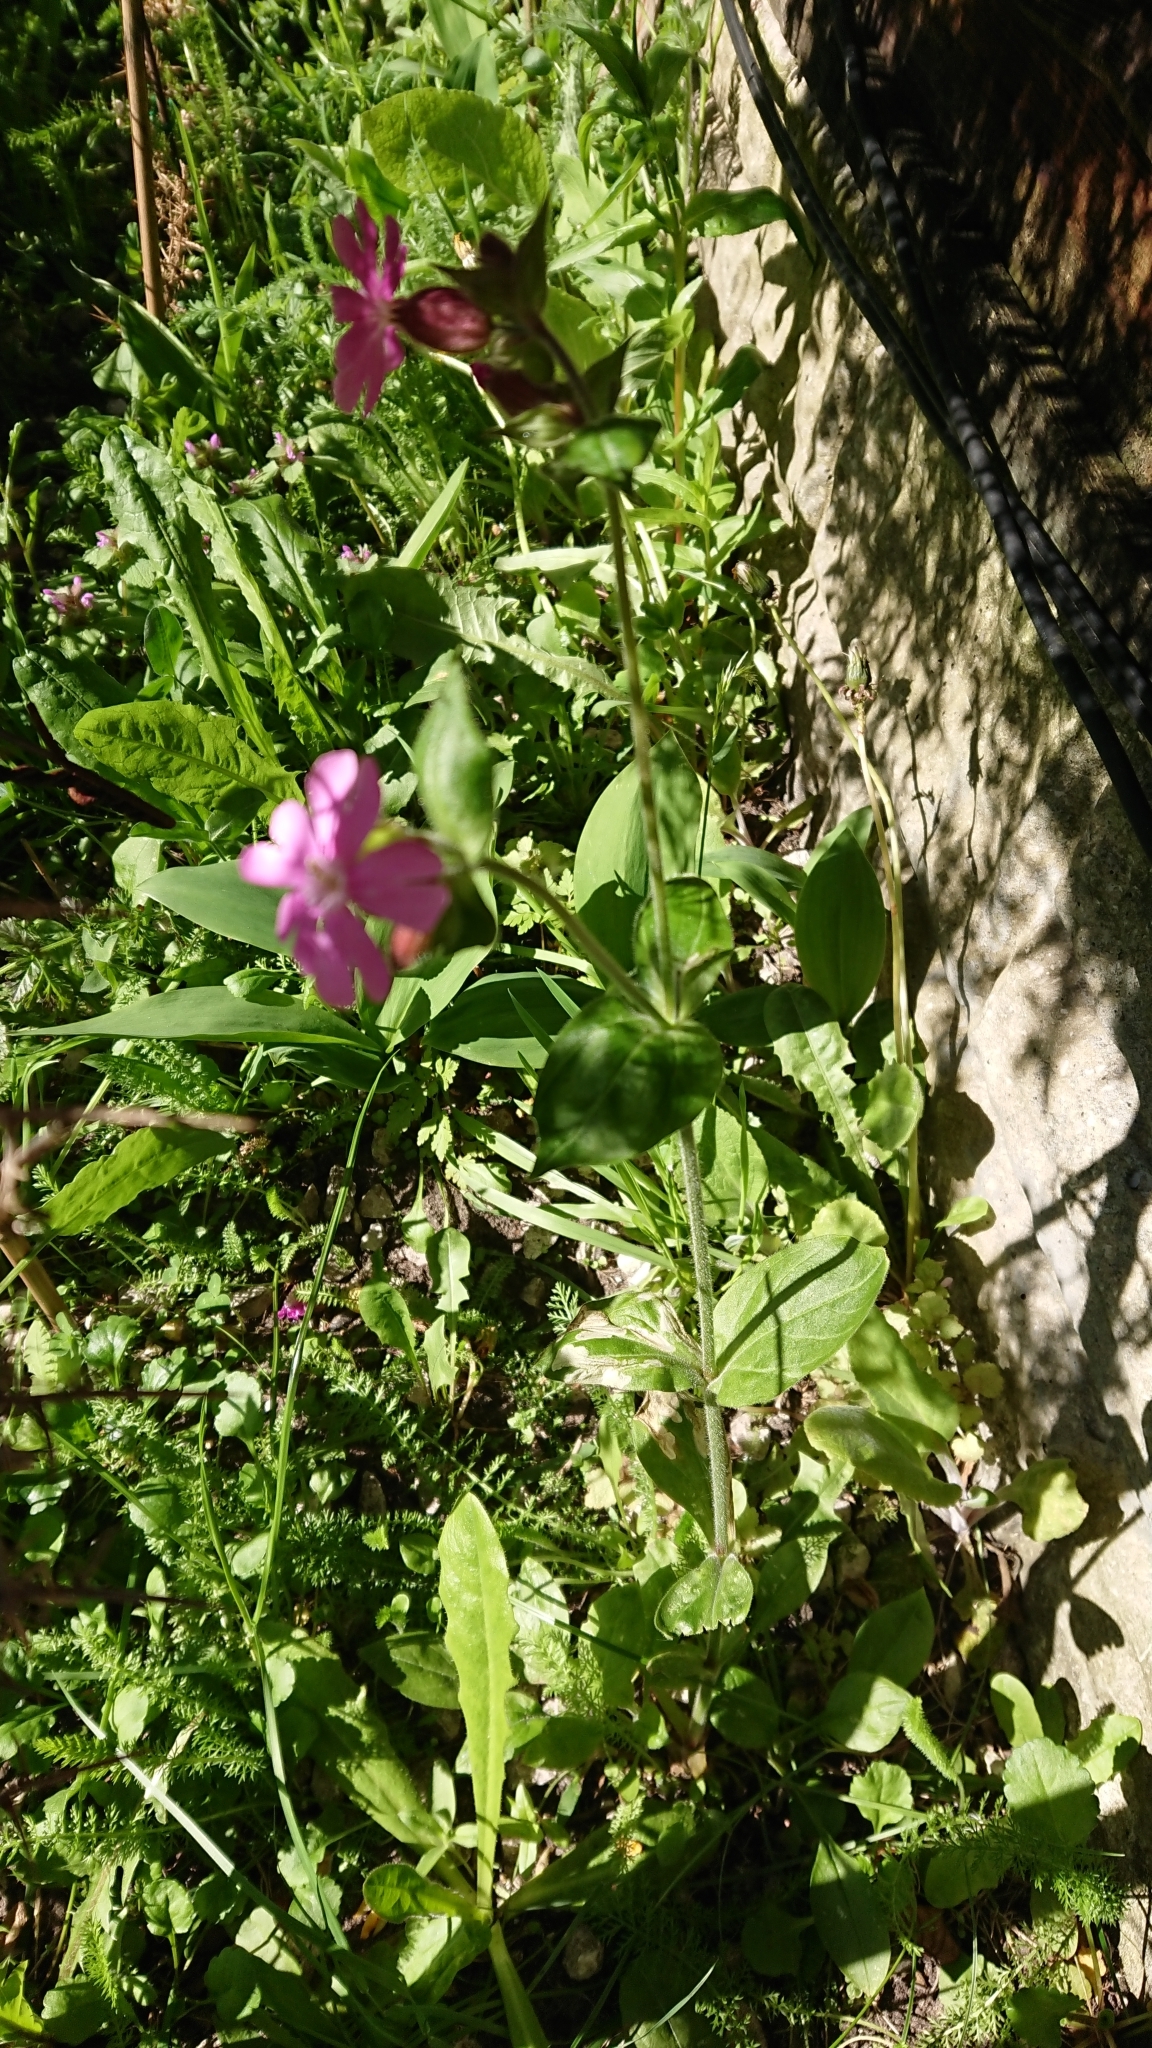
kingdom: Plantae
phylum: Tracheophyta
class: Magnoliopsida
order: Caryophyllales
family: Caryophyllaceae
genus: Silene
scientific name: Silene dioica
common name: Red campion
